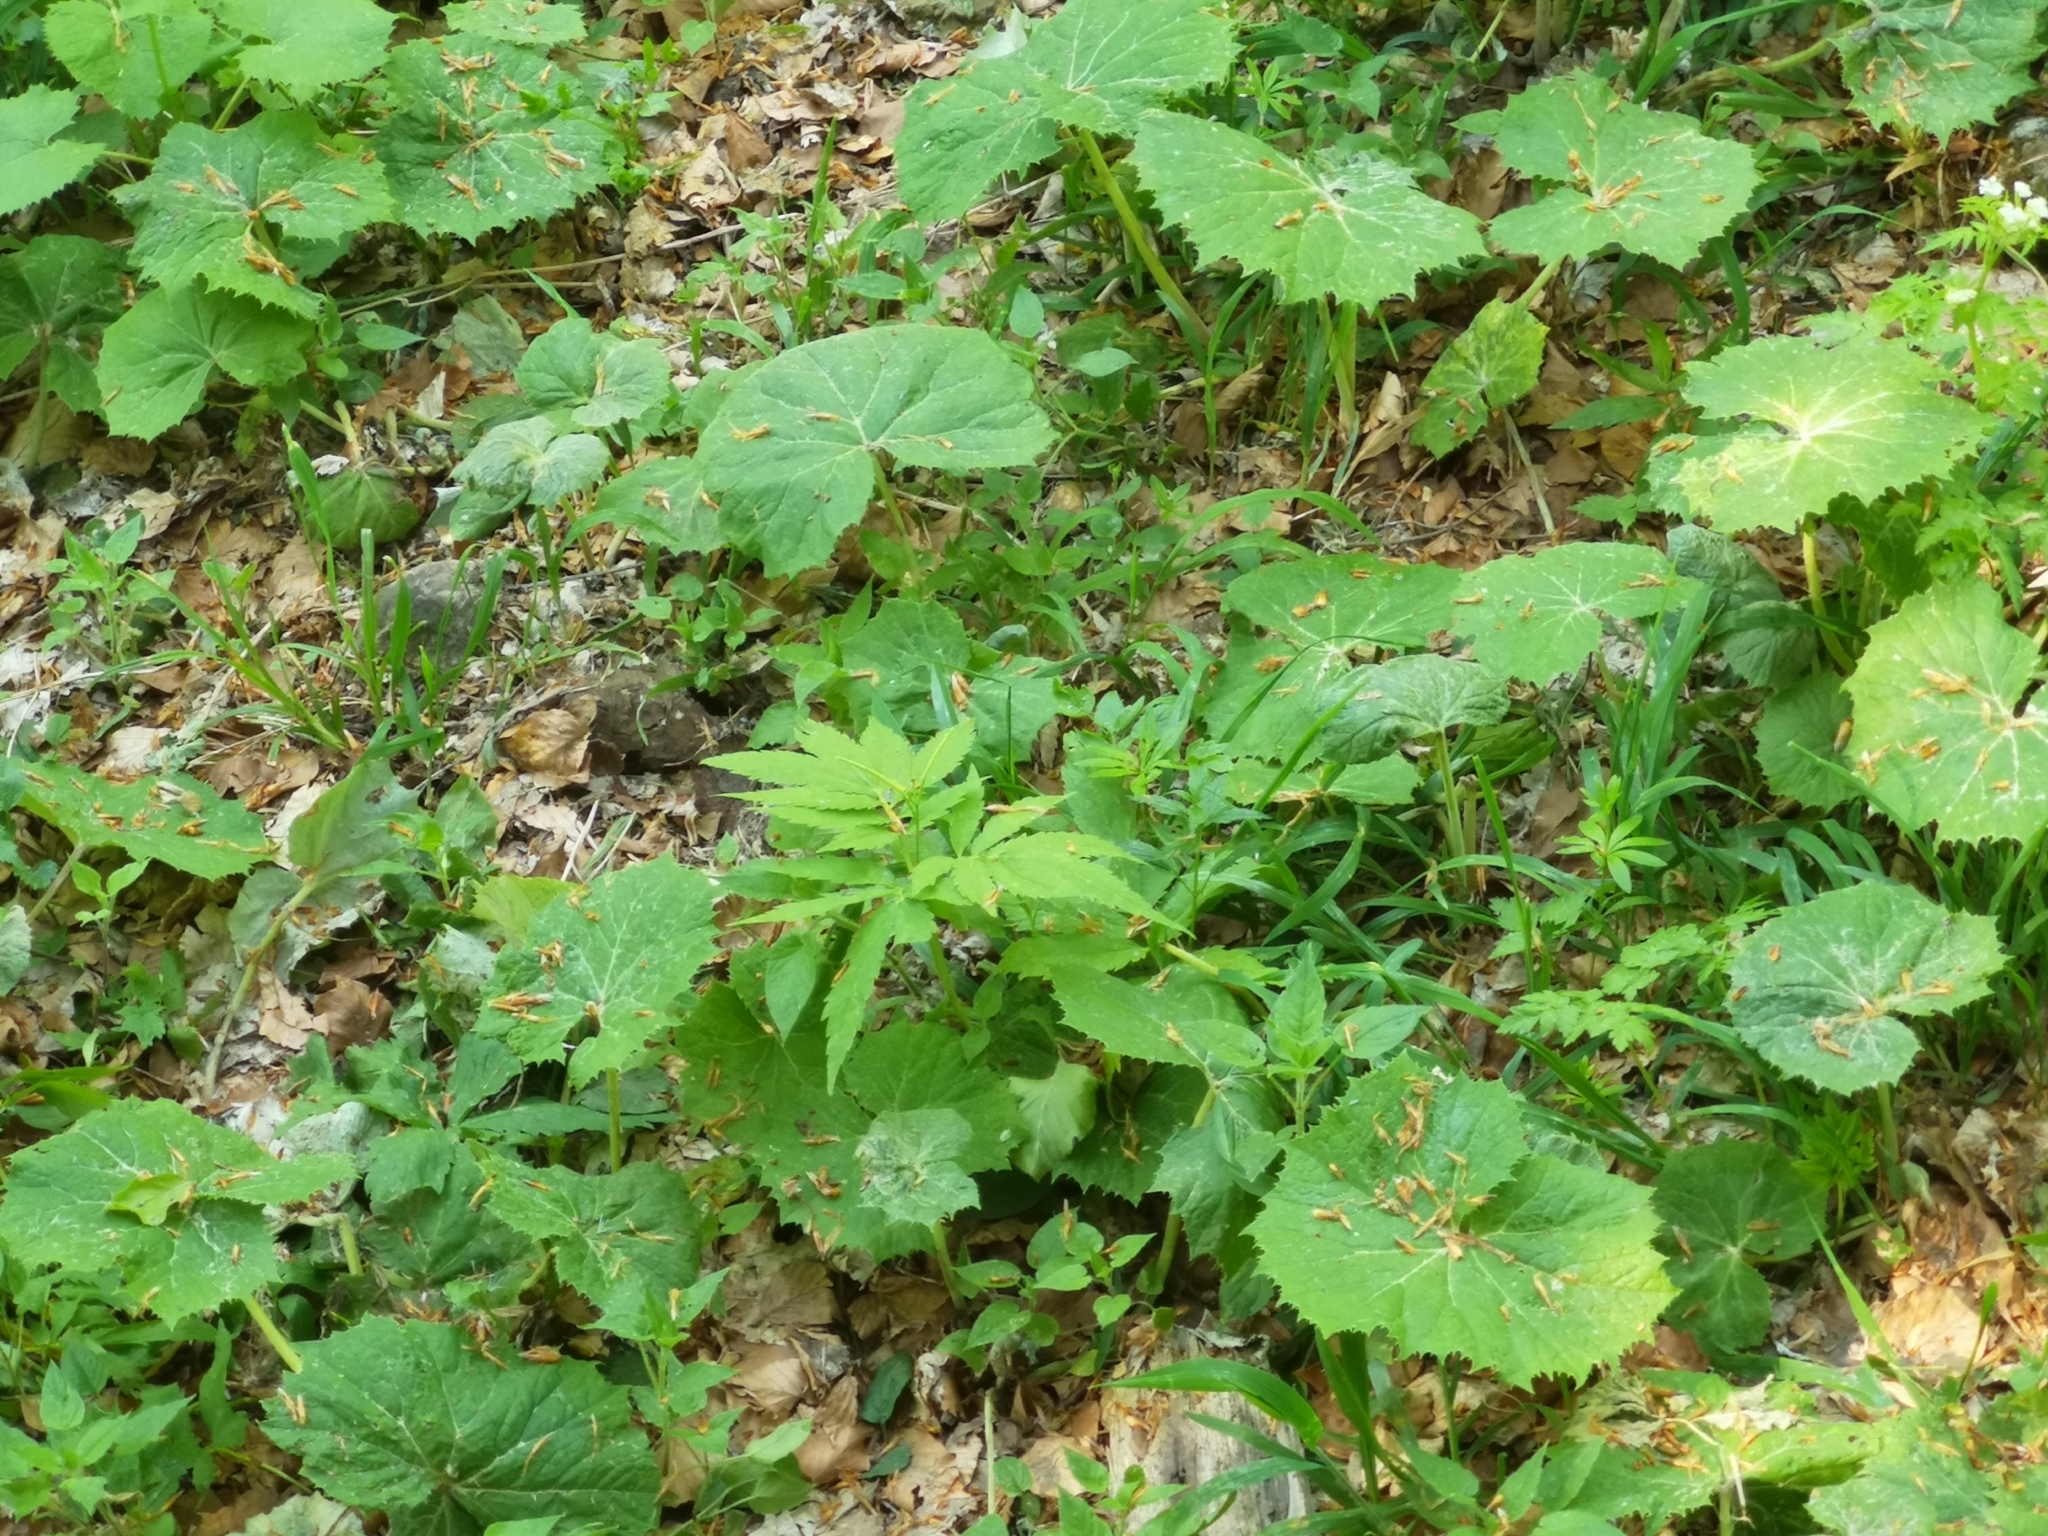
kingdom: Plantae
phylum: Tracheophyta
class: Magnoliopsida
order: Brassicales
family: Brassicaceae
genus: Cardamine
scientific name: Cardamine kitaibelii
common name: Kitaibel's bitter-cress
